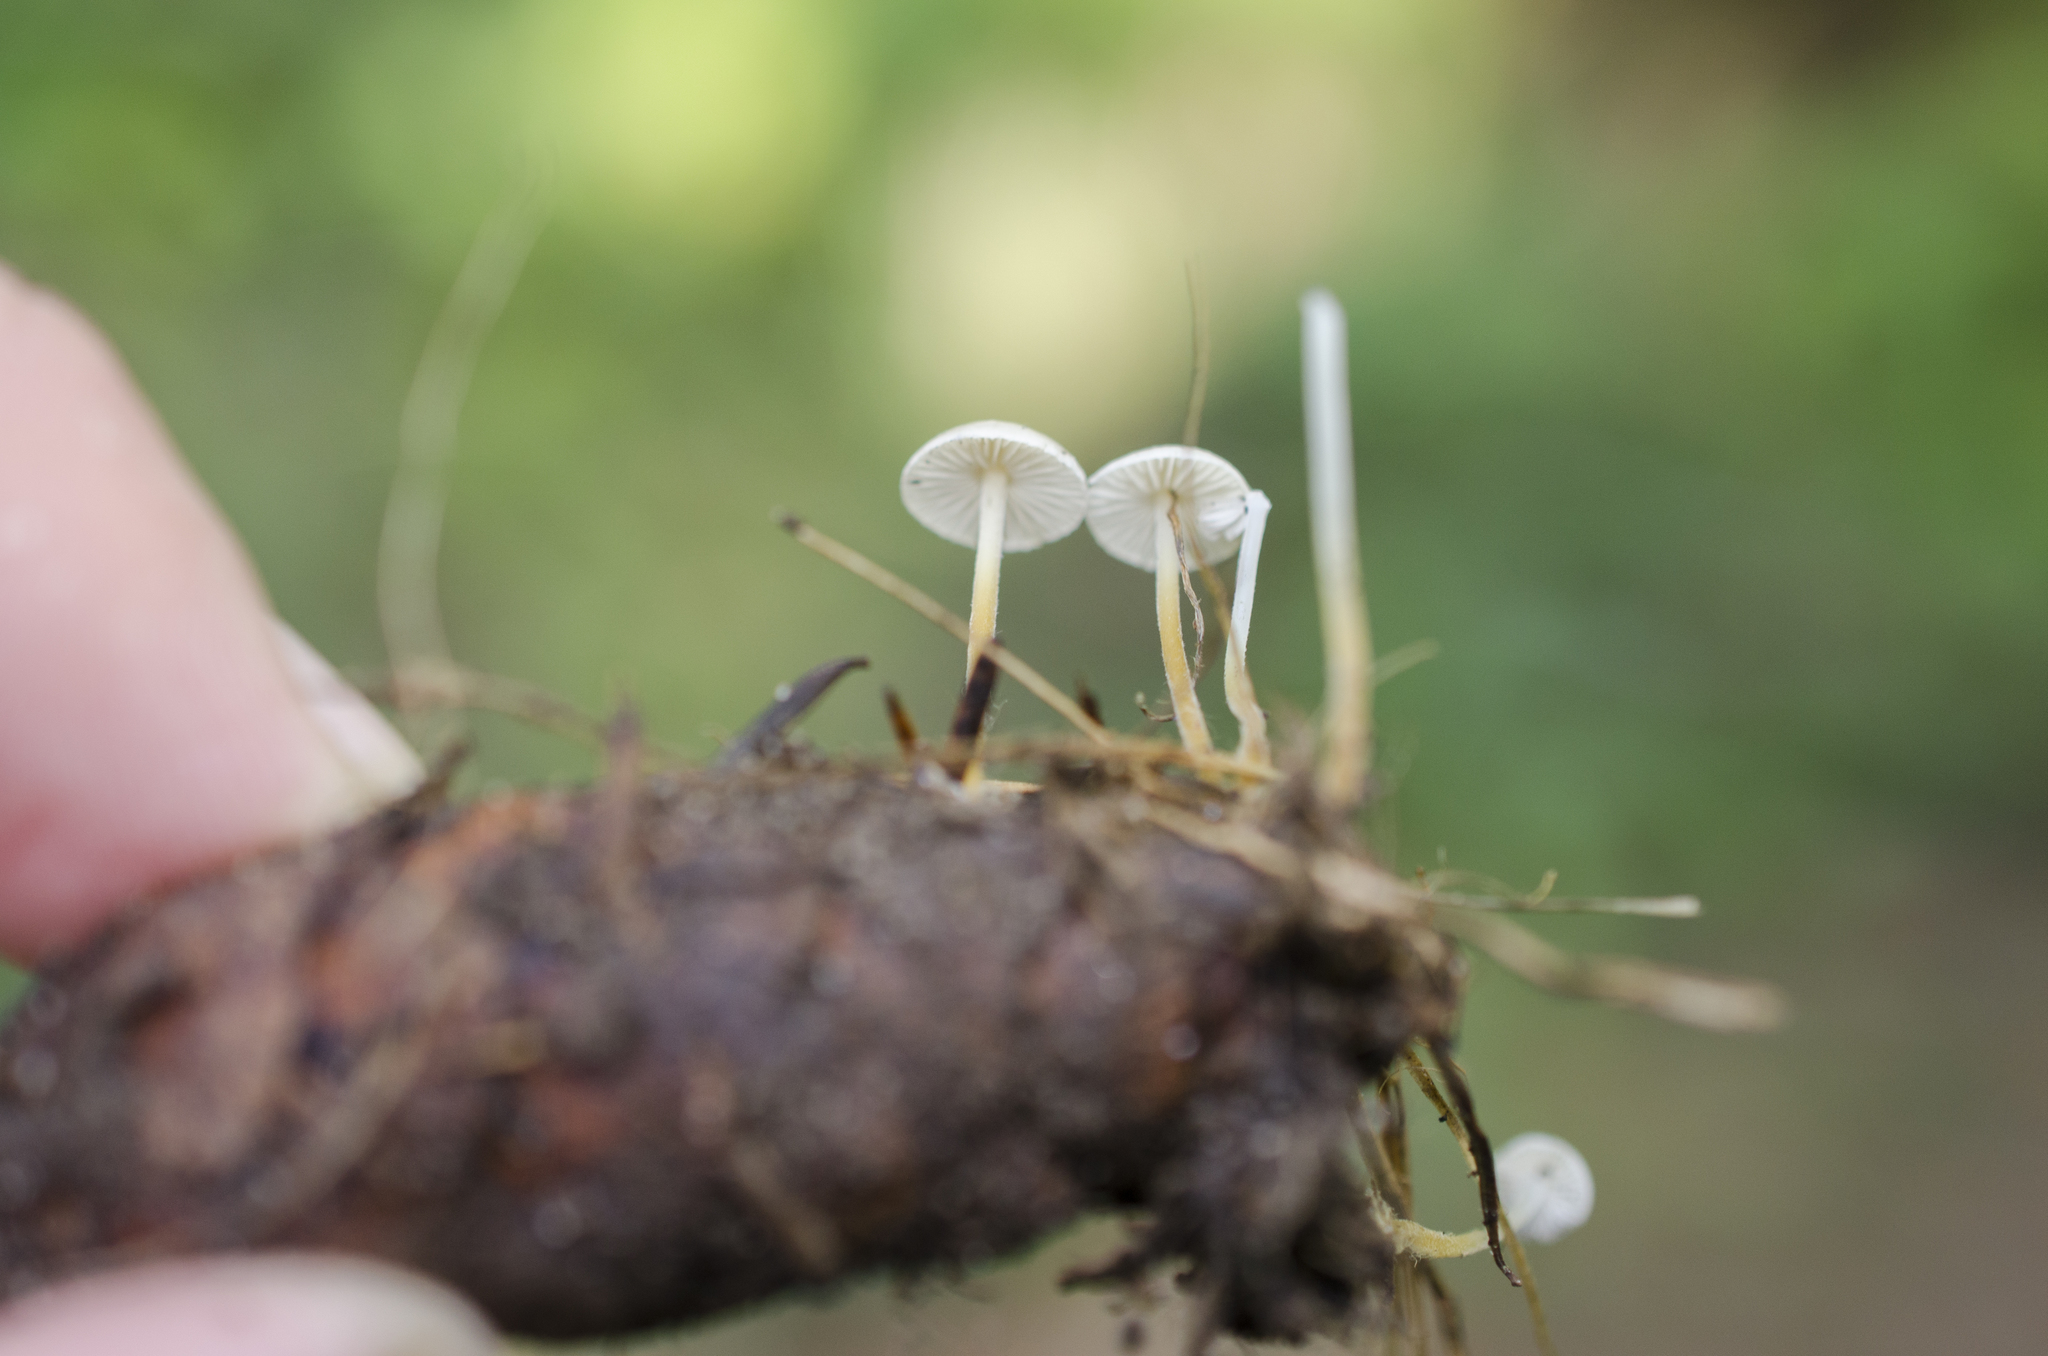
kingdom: Fungi
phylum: Basidiomycota
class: Agaricomycetes
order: Agaricales
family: Physalacriaceae
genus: Strobilurus
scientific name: Strobilurus trullisatus
